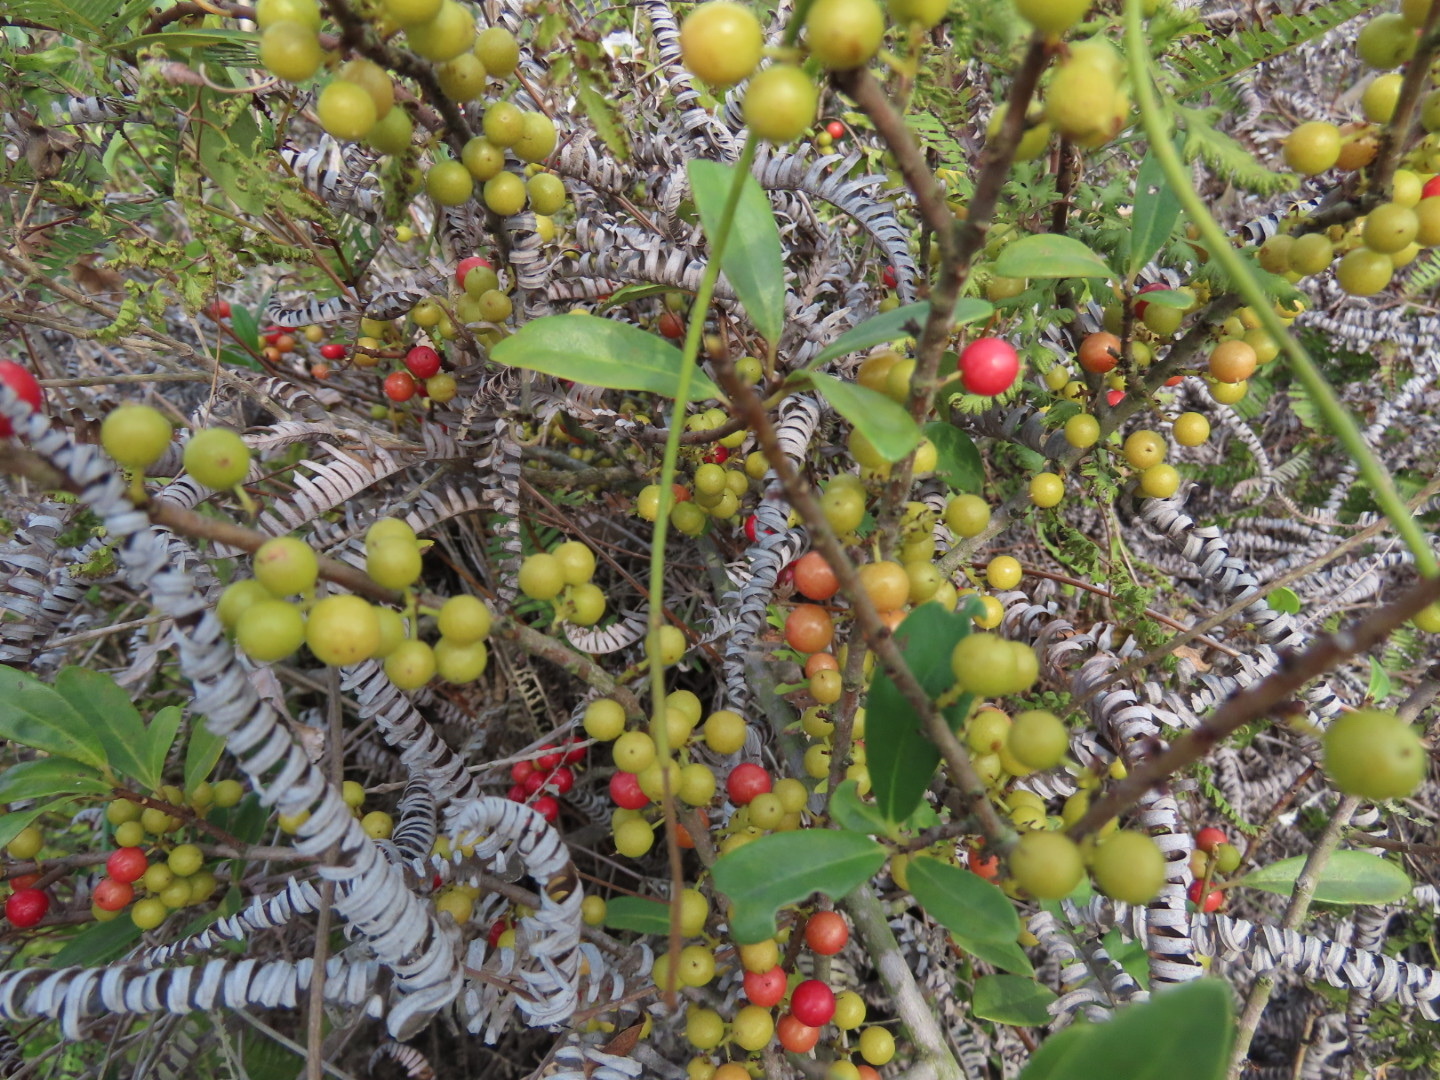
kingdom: Plantae
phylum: Tracheophyta
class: Magnoliopsida
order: Ericales
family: Primulaceae
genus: Embelia
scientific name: Embelia laeta
